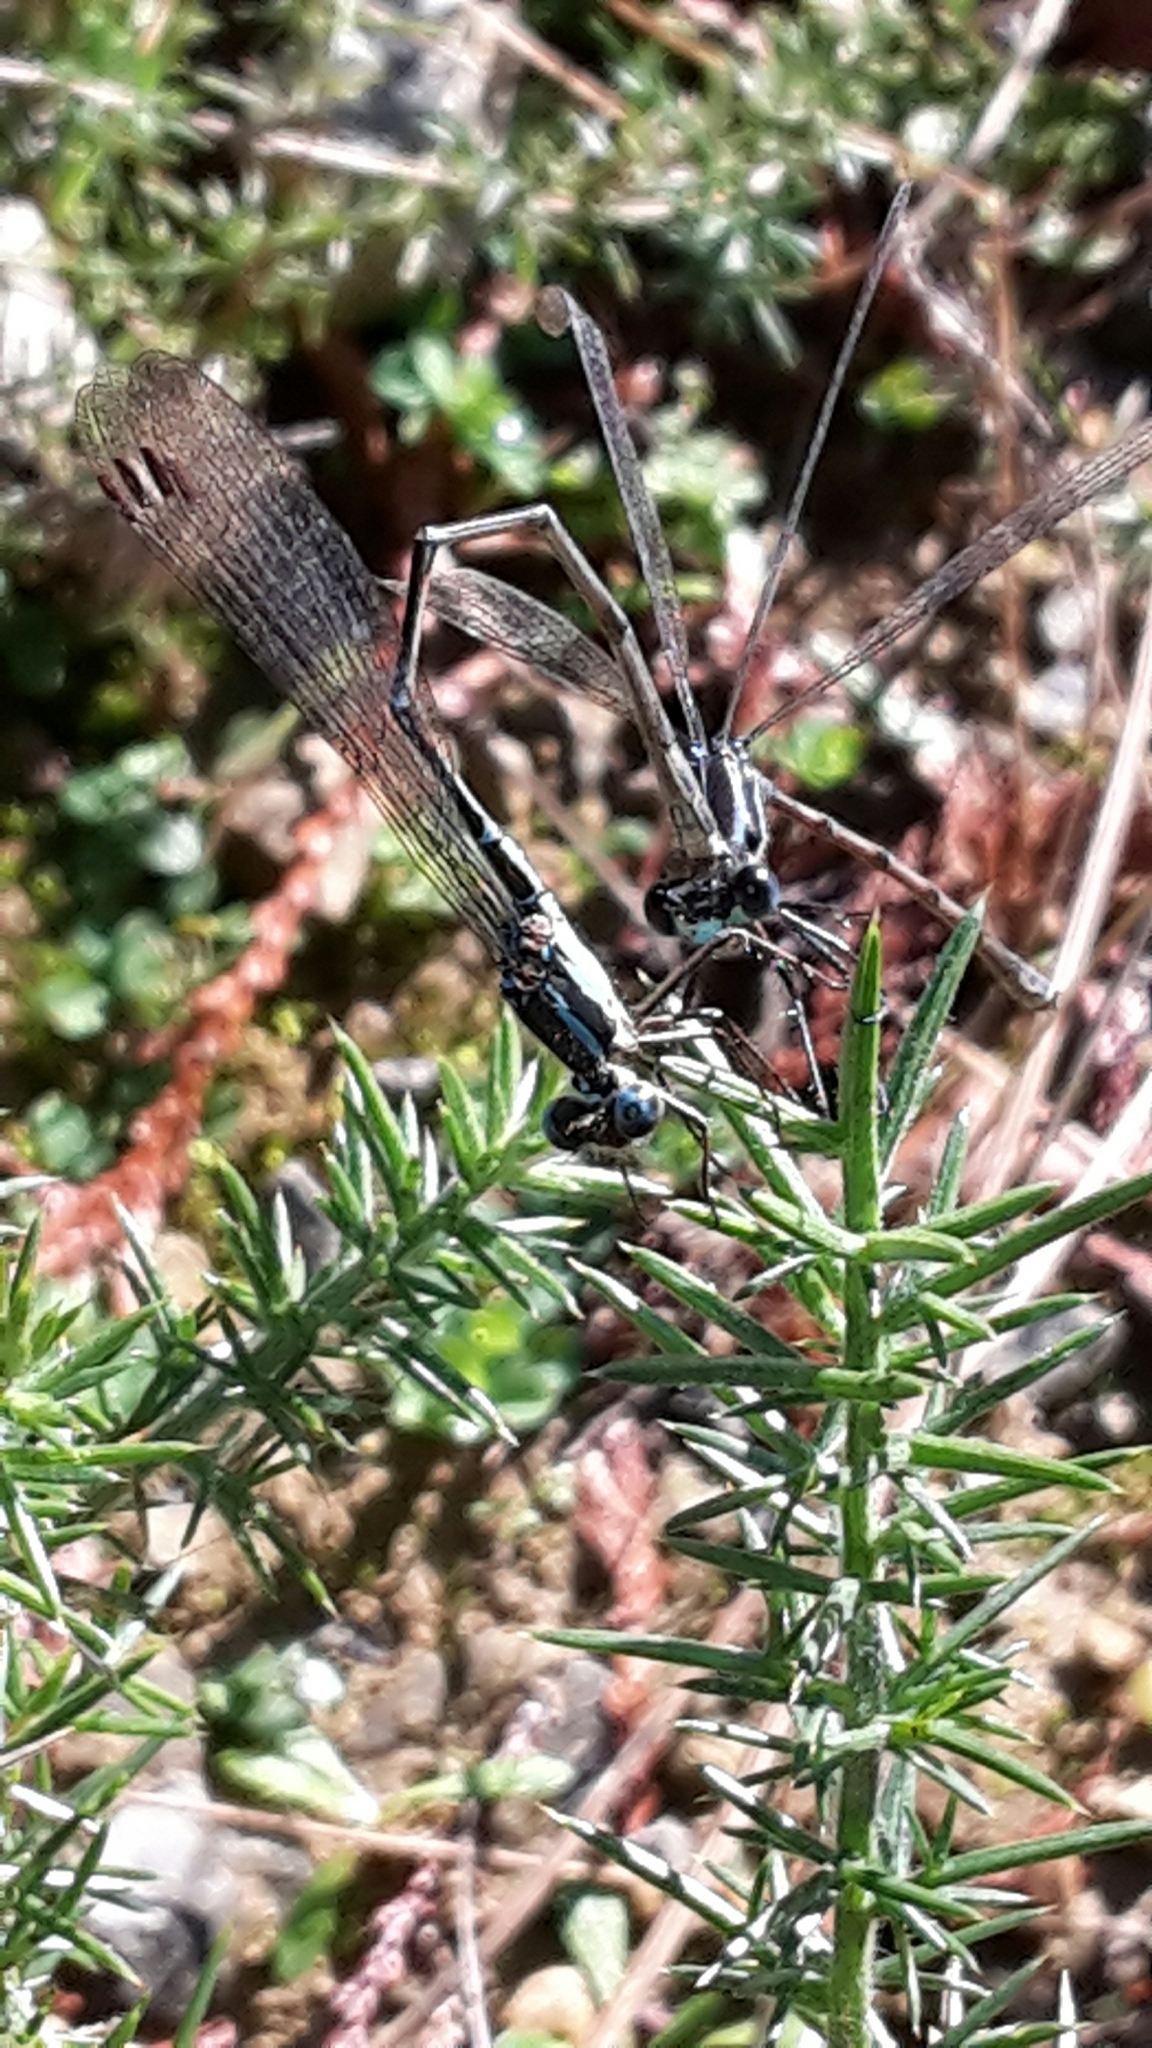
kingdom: Animalia
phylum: Arthropoda
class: Insecta
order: Odonata
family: Lestidae
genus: Austrolestes
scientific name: Austrolestes colensonis
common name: Blue damselfly
